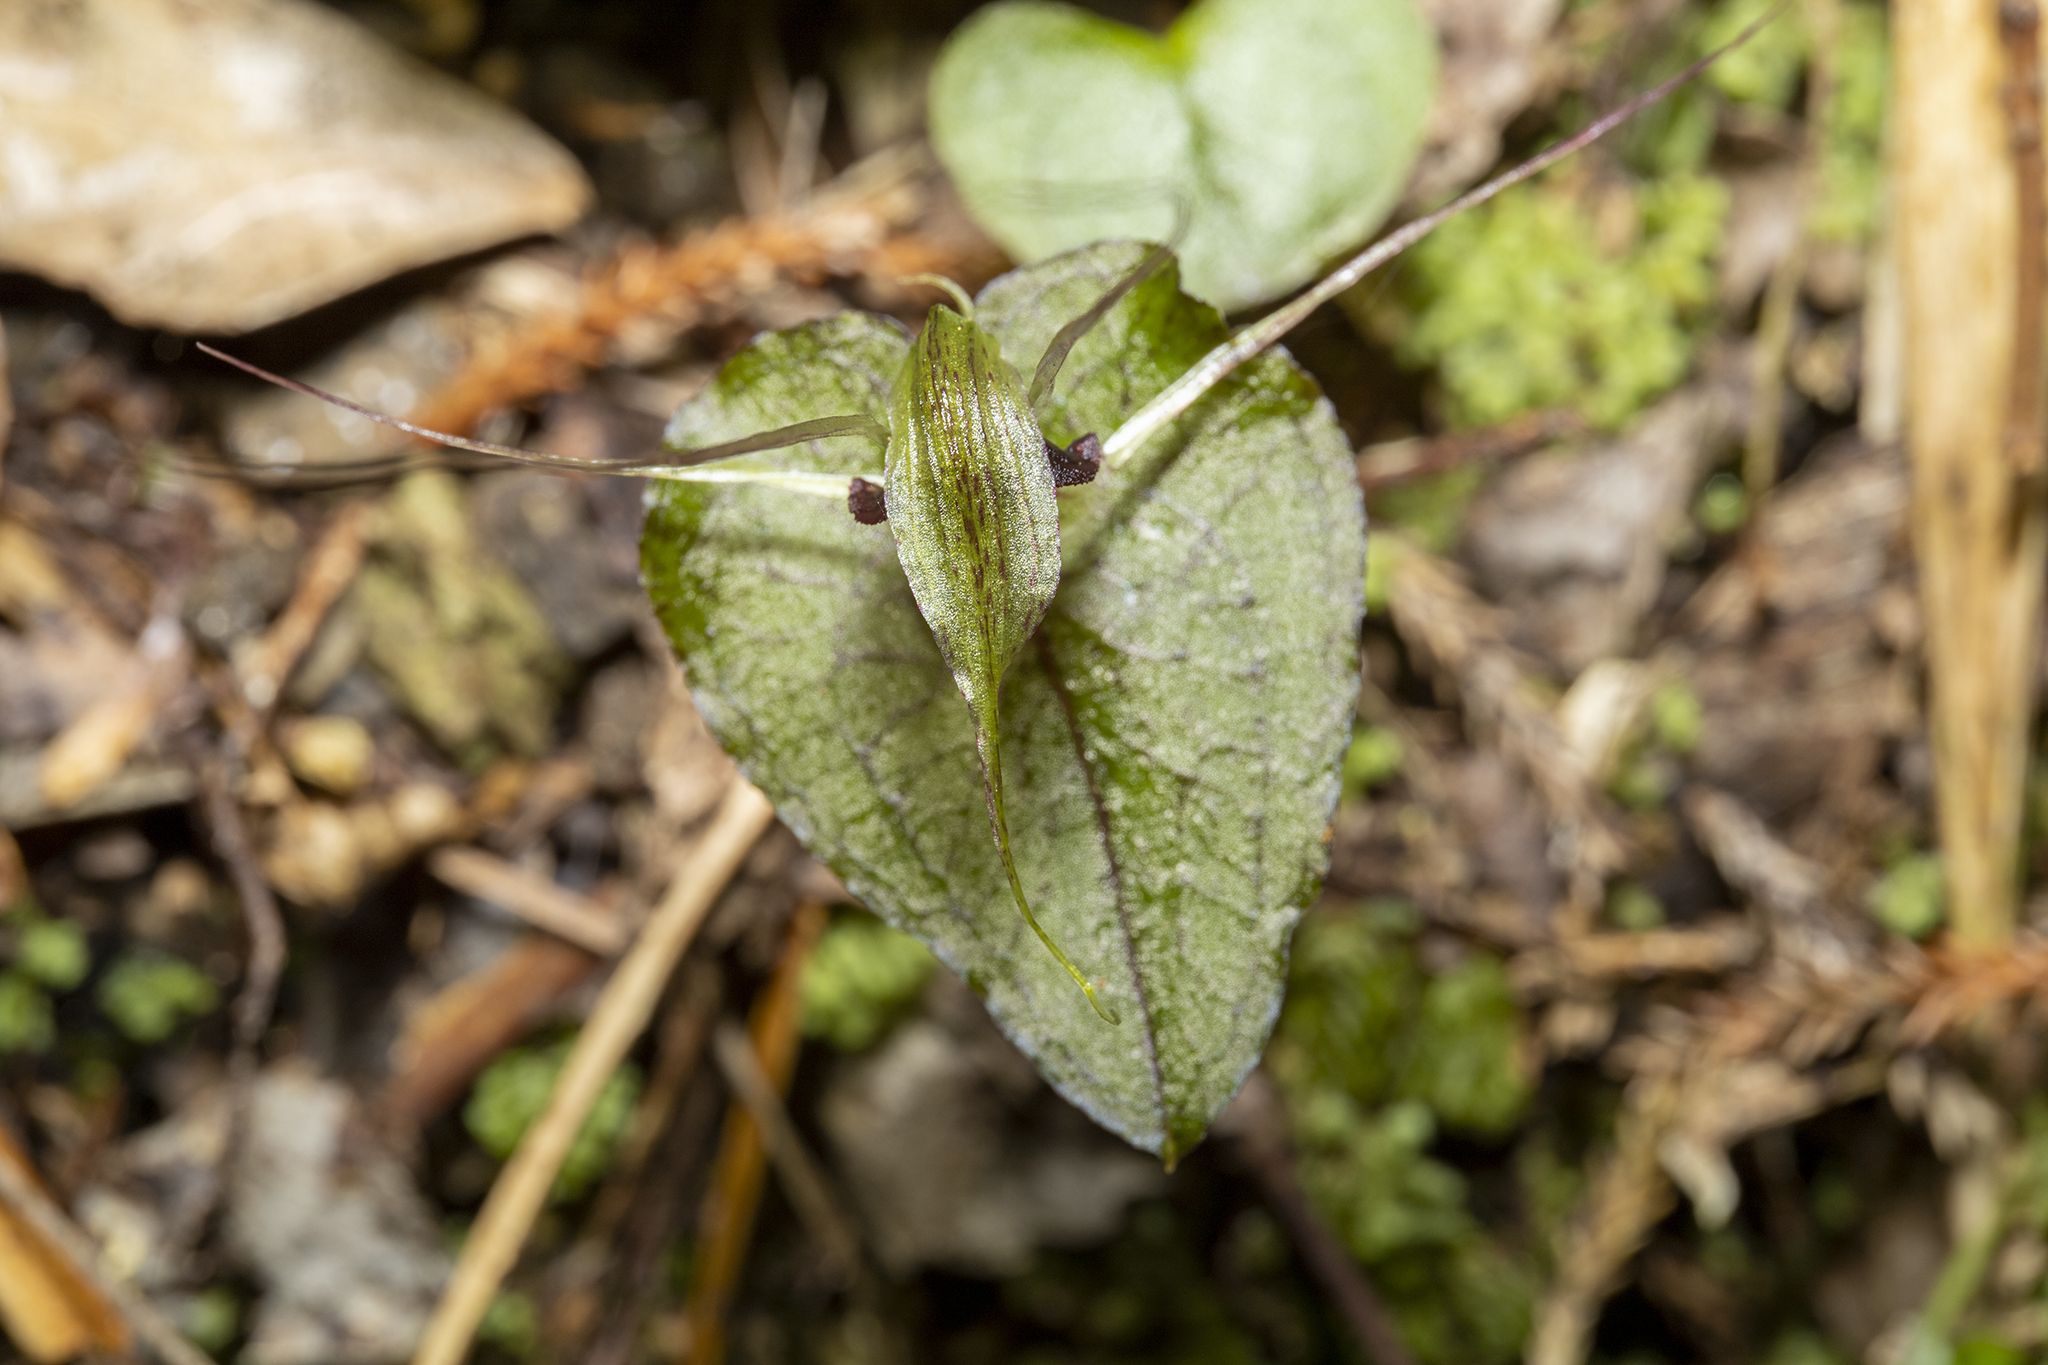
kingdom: Plantae
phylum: Tracheophyta
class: Liliopsida
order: Asparagales
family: Orchidaceae
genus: Corybas
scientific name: Corybas acuminatus
